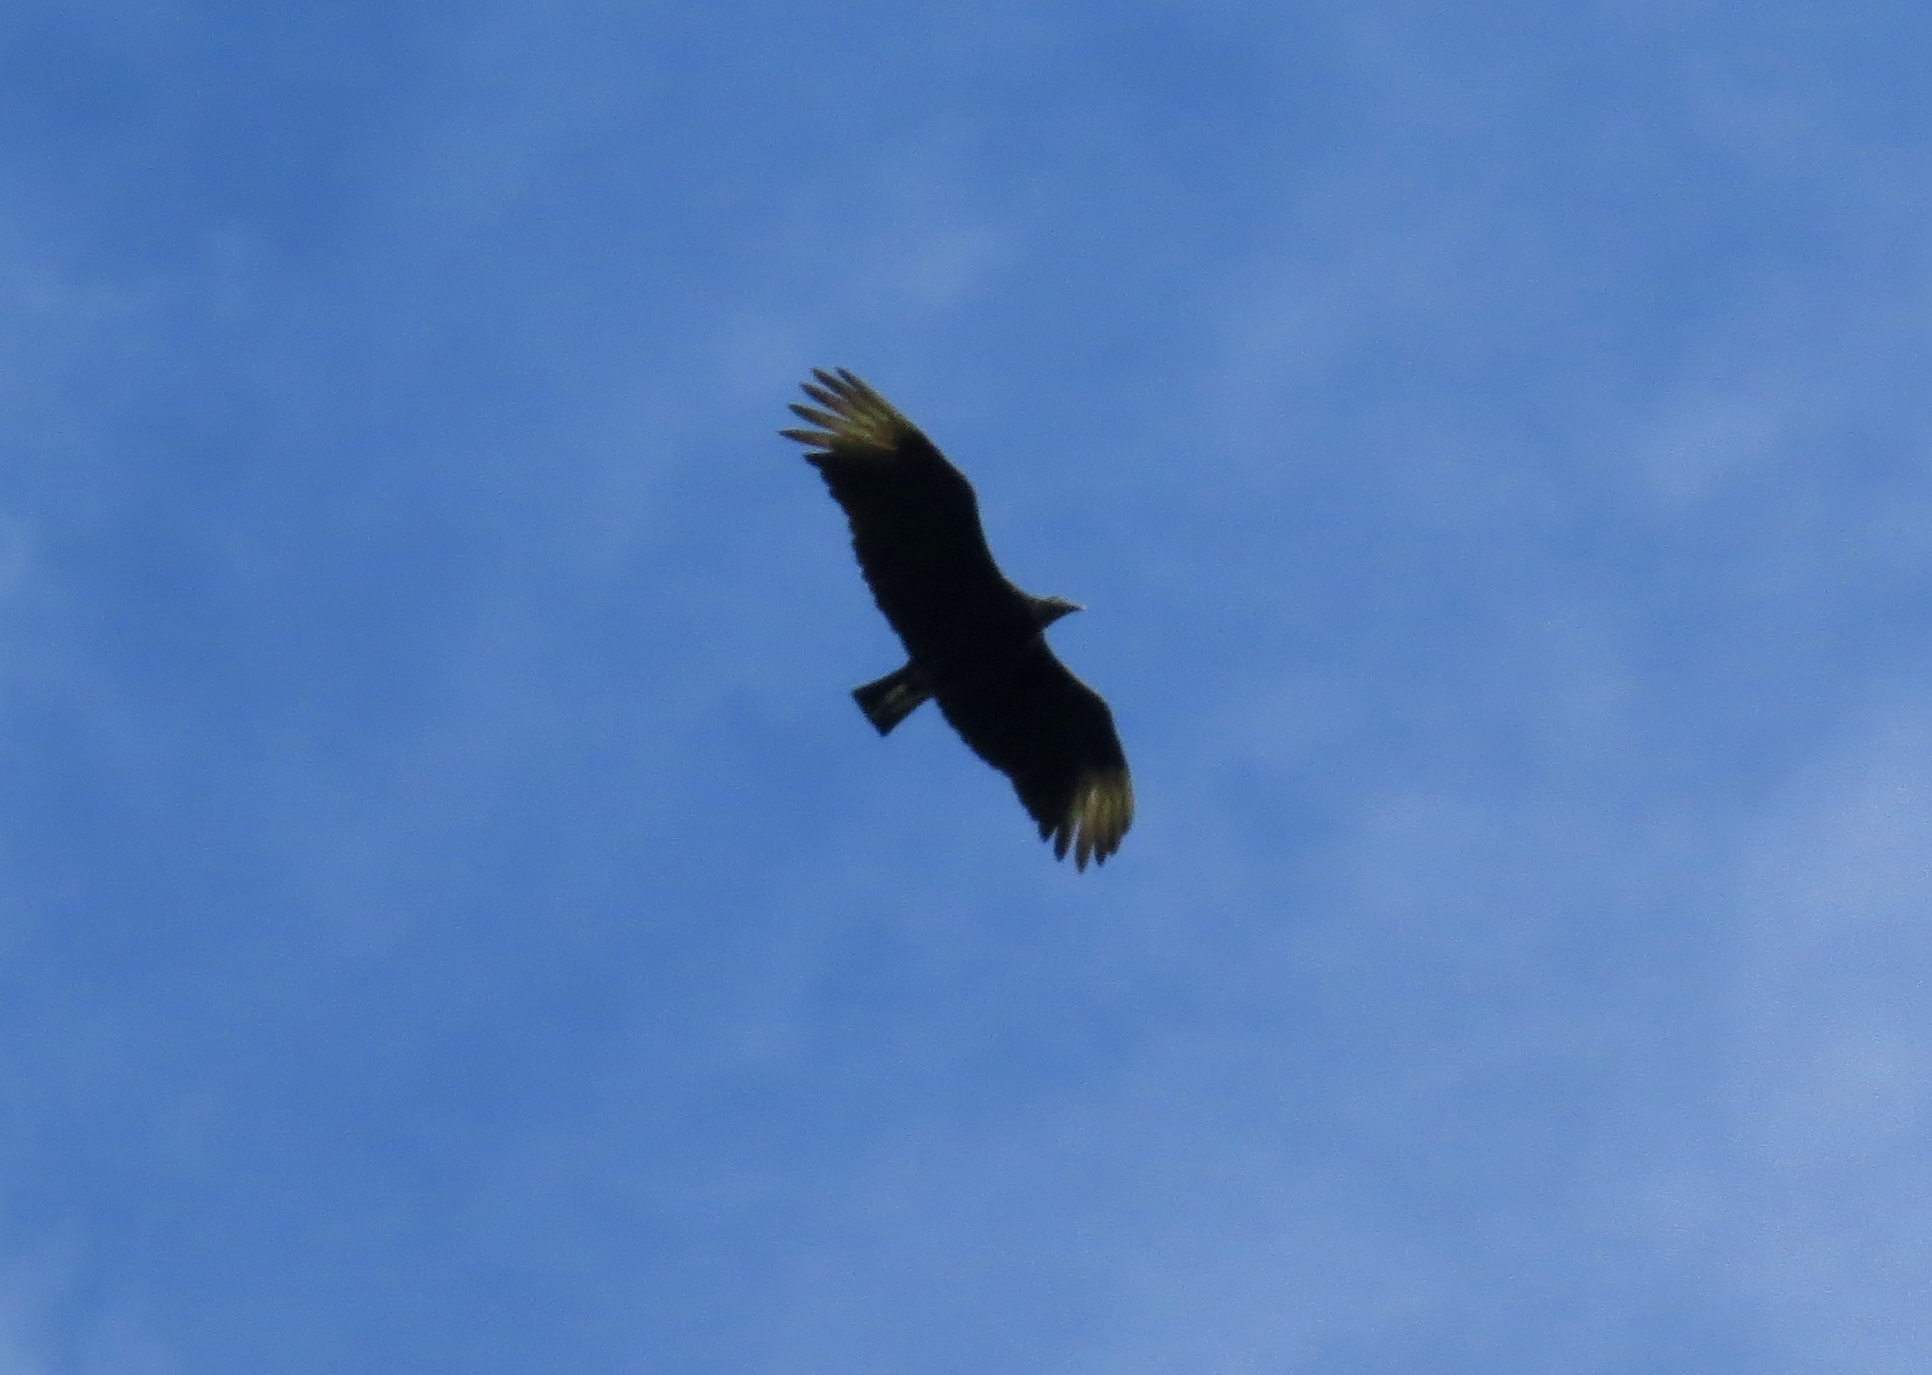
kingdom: Animalia
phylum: Chordata
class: Aves
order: Accipitriformes
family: Cathartidae
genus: Coragyps
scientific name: Coragyps atratus
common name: Black vulture
